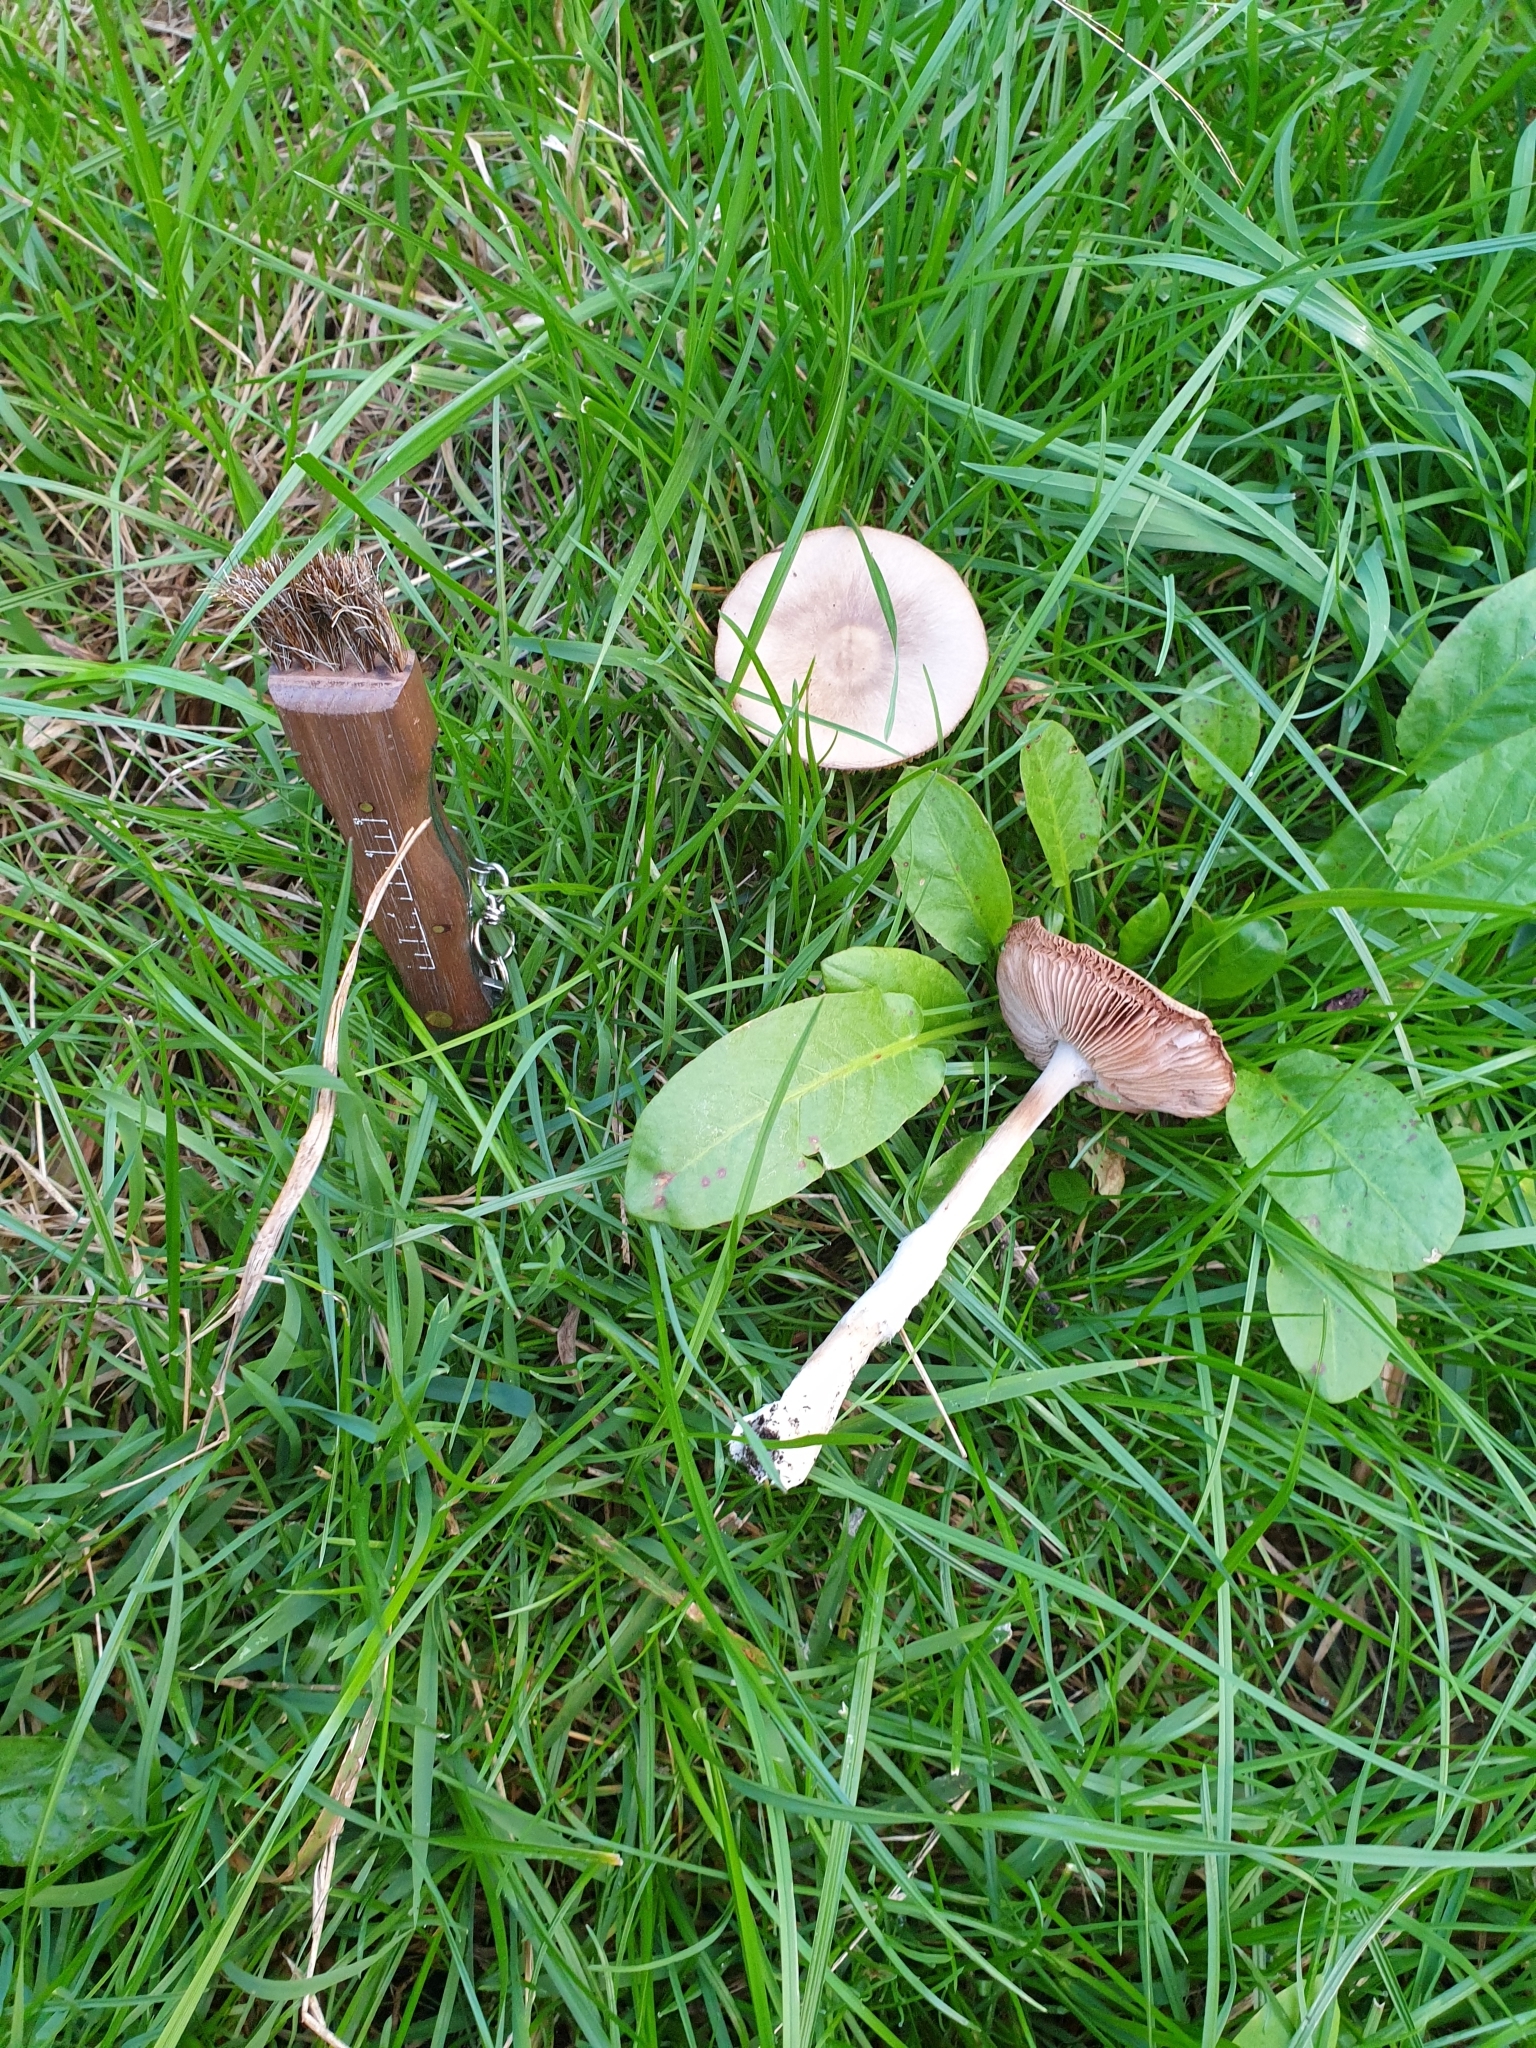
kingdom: Fungi
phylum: Basidiomycota
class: Agaricomycetes
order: Agaricales
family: Pluteaceae
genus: Volvopluteus
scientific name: Volvopluteus gloiocephalus
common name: Stubble rosegill
